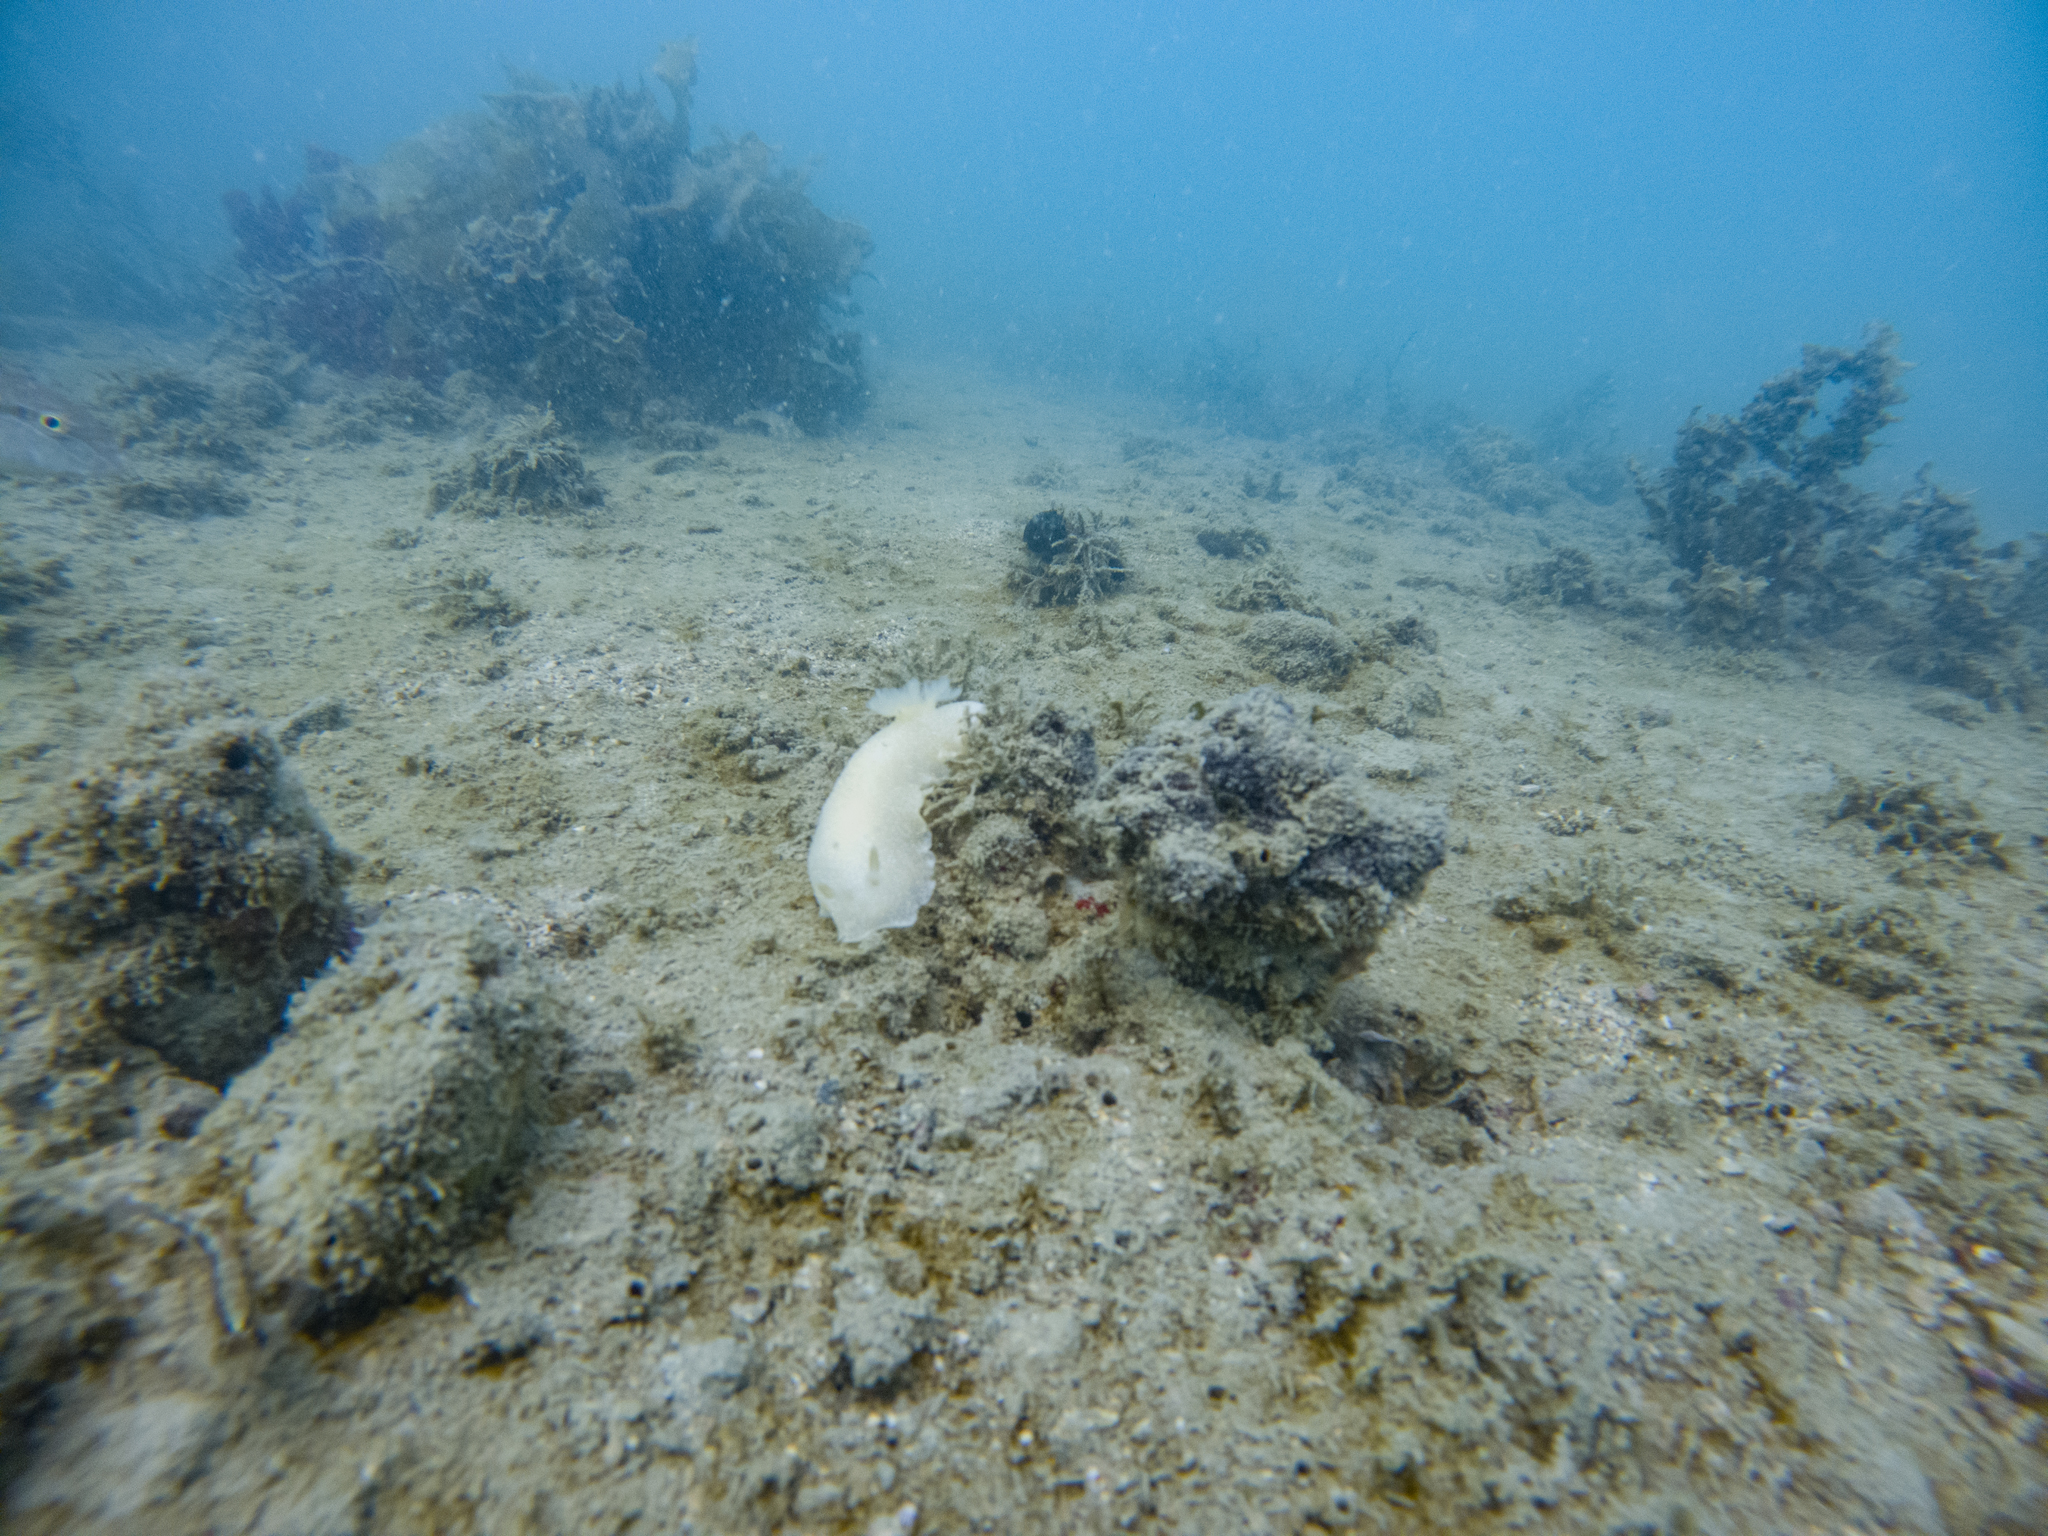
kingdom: Animalia
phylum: Mollusca
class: Gastropoda
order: Nudibranchia
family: Dendrodorididae
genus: Dendrodoris
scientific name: Dendrodoris citrina
